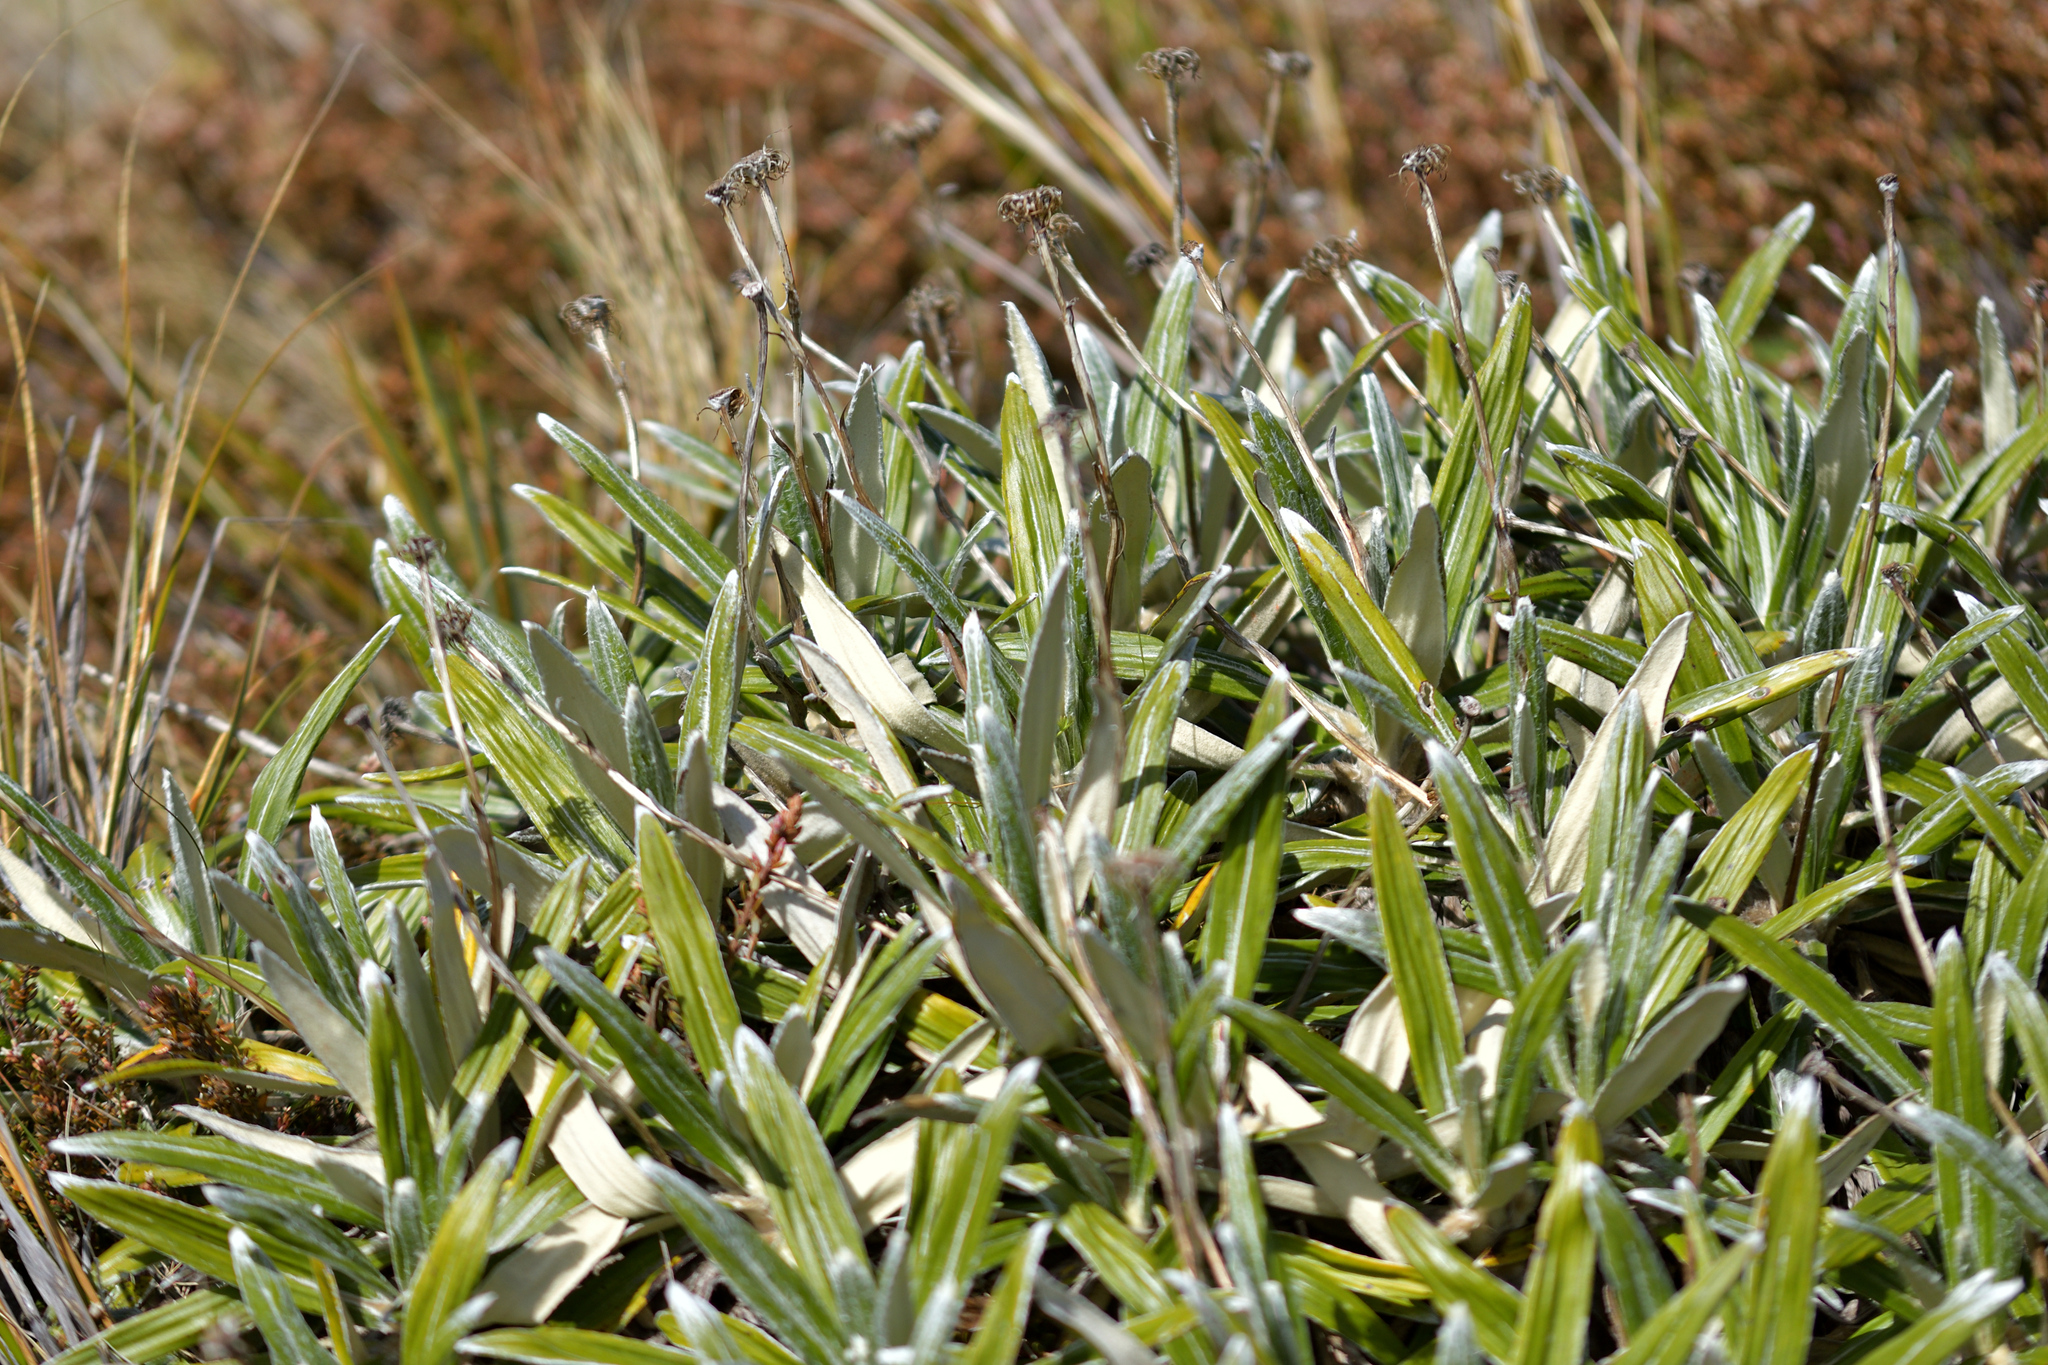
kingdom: Plantae
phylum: Tracheophyta
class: Magnoliopsida
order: Asterales
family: Asteraceae
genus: Celmisia
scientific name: Celmisia spectabilis
